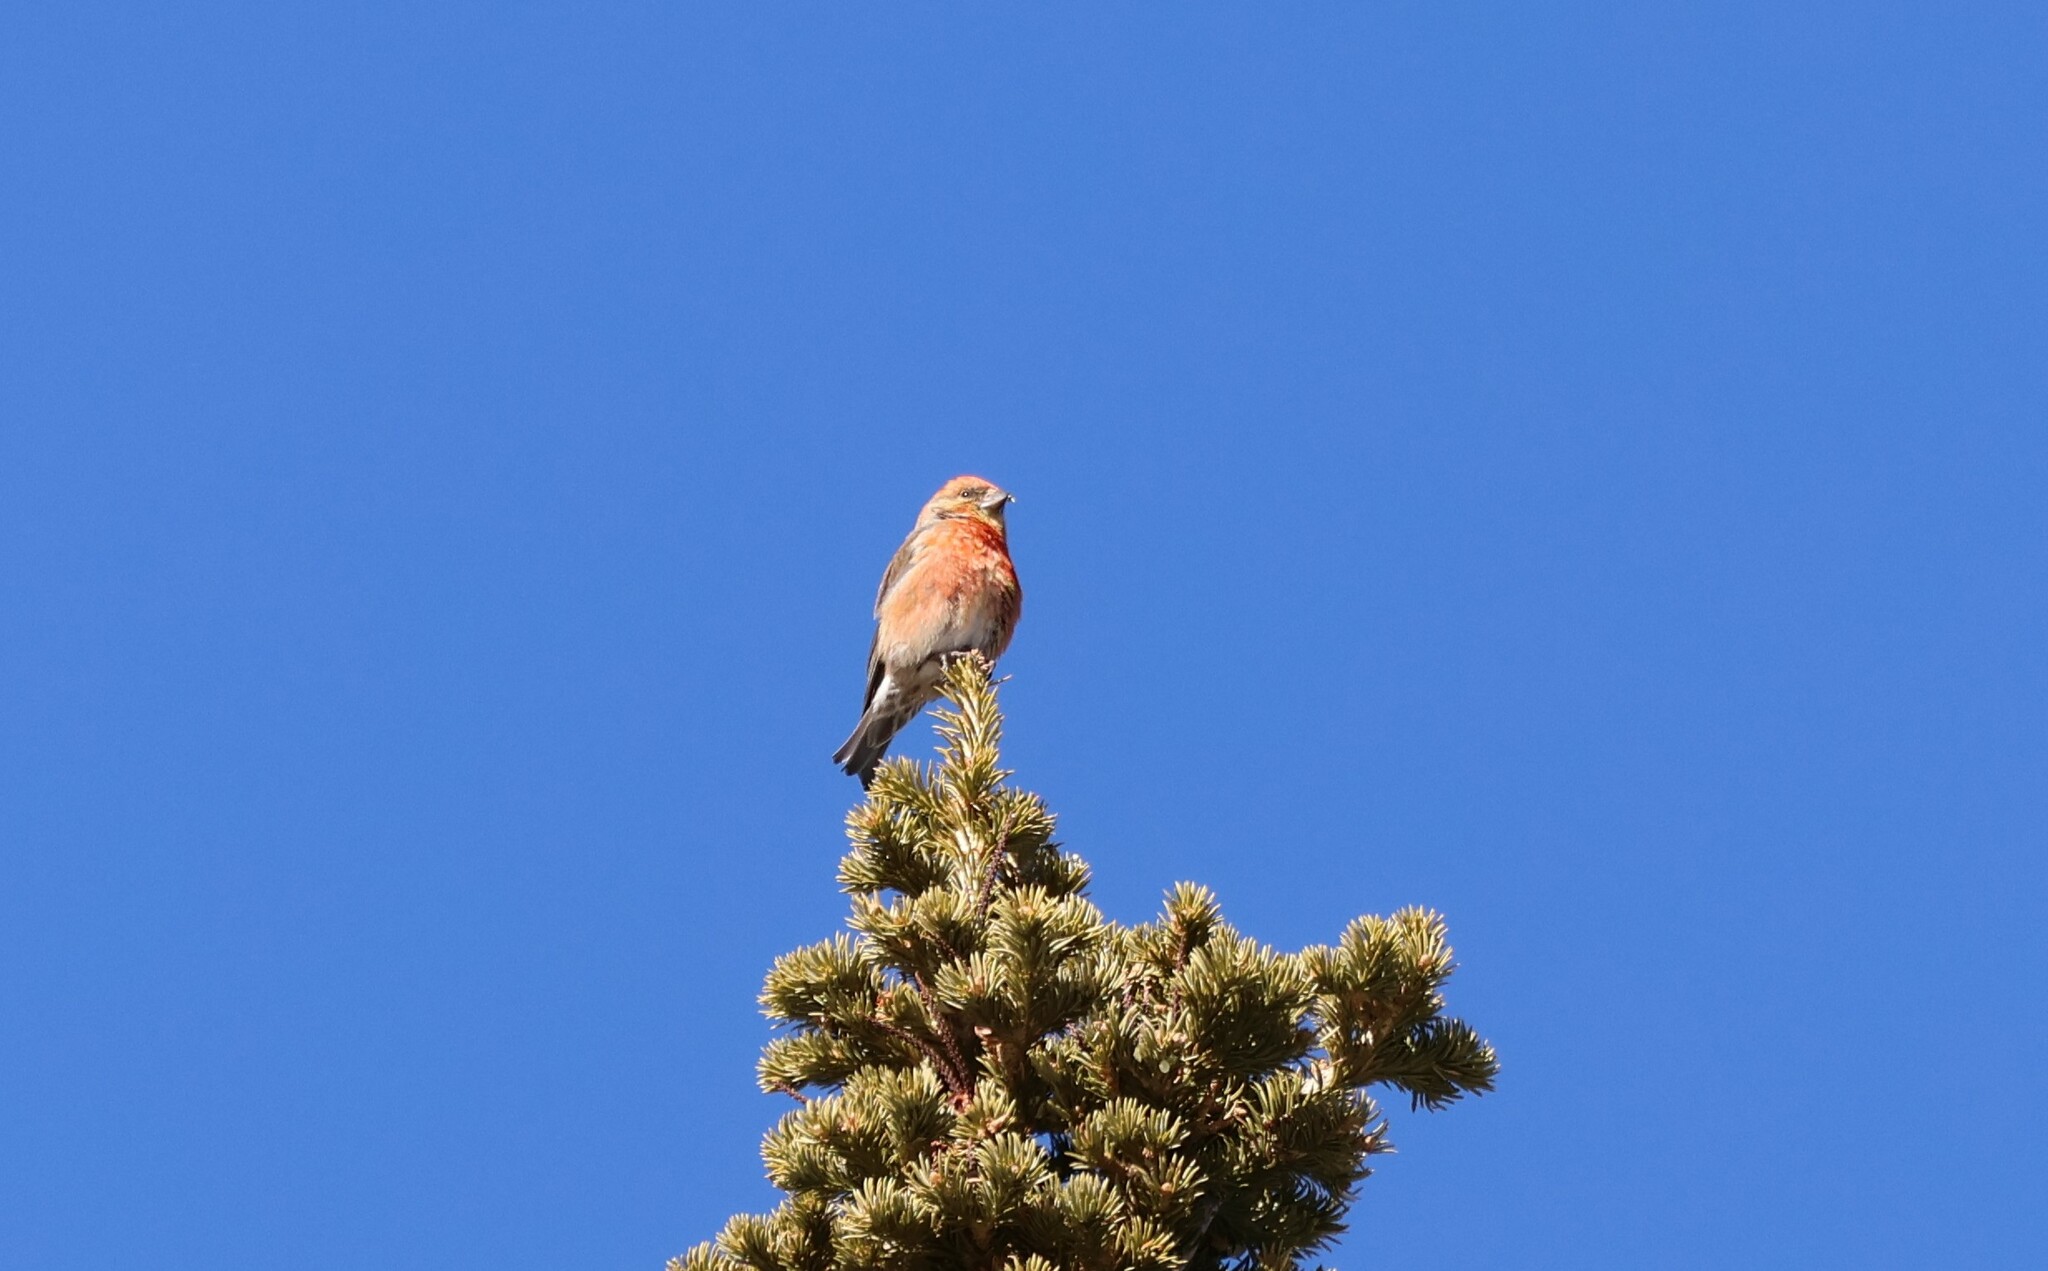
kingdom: Animalia
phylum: Chordata
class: Aves
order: Passeriformes
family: Fringillidae
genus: Loxia
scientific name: Loxia curvirostra
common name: Red crossbill
